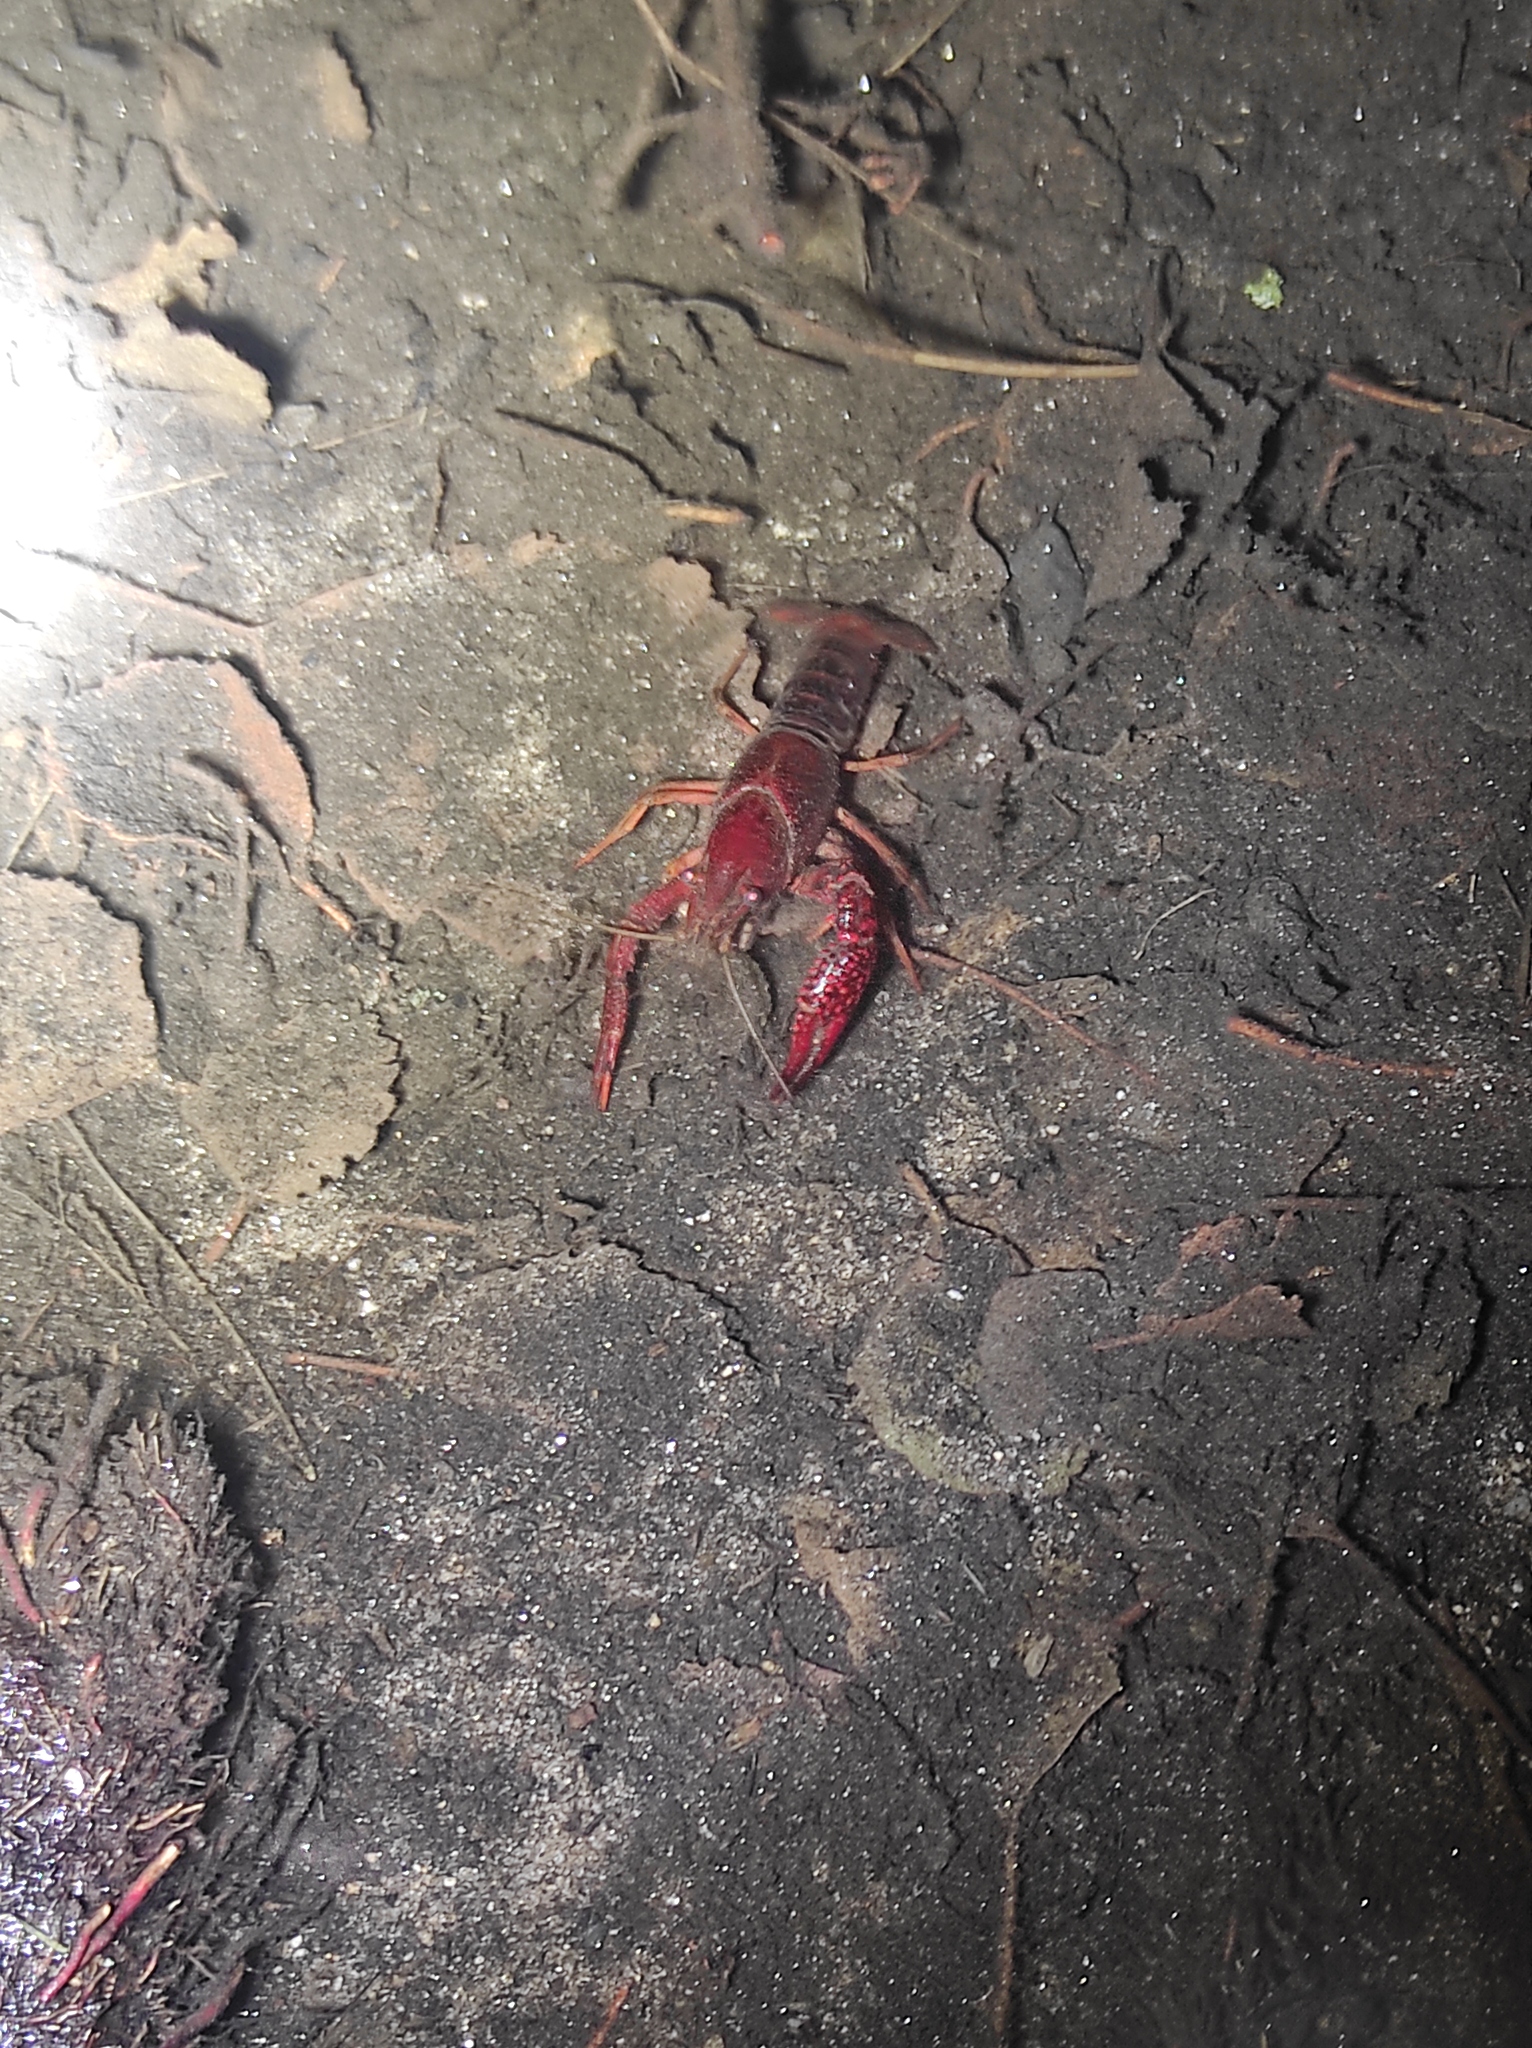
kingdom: Animalia
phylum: Chordata
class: Amphibia
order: Anura
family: Bufonidae
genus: Epidalea
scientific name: Epidalea calamita
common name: Natterjack toad
